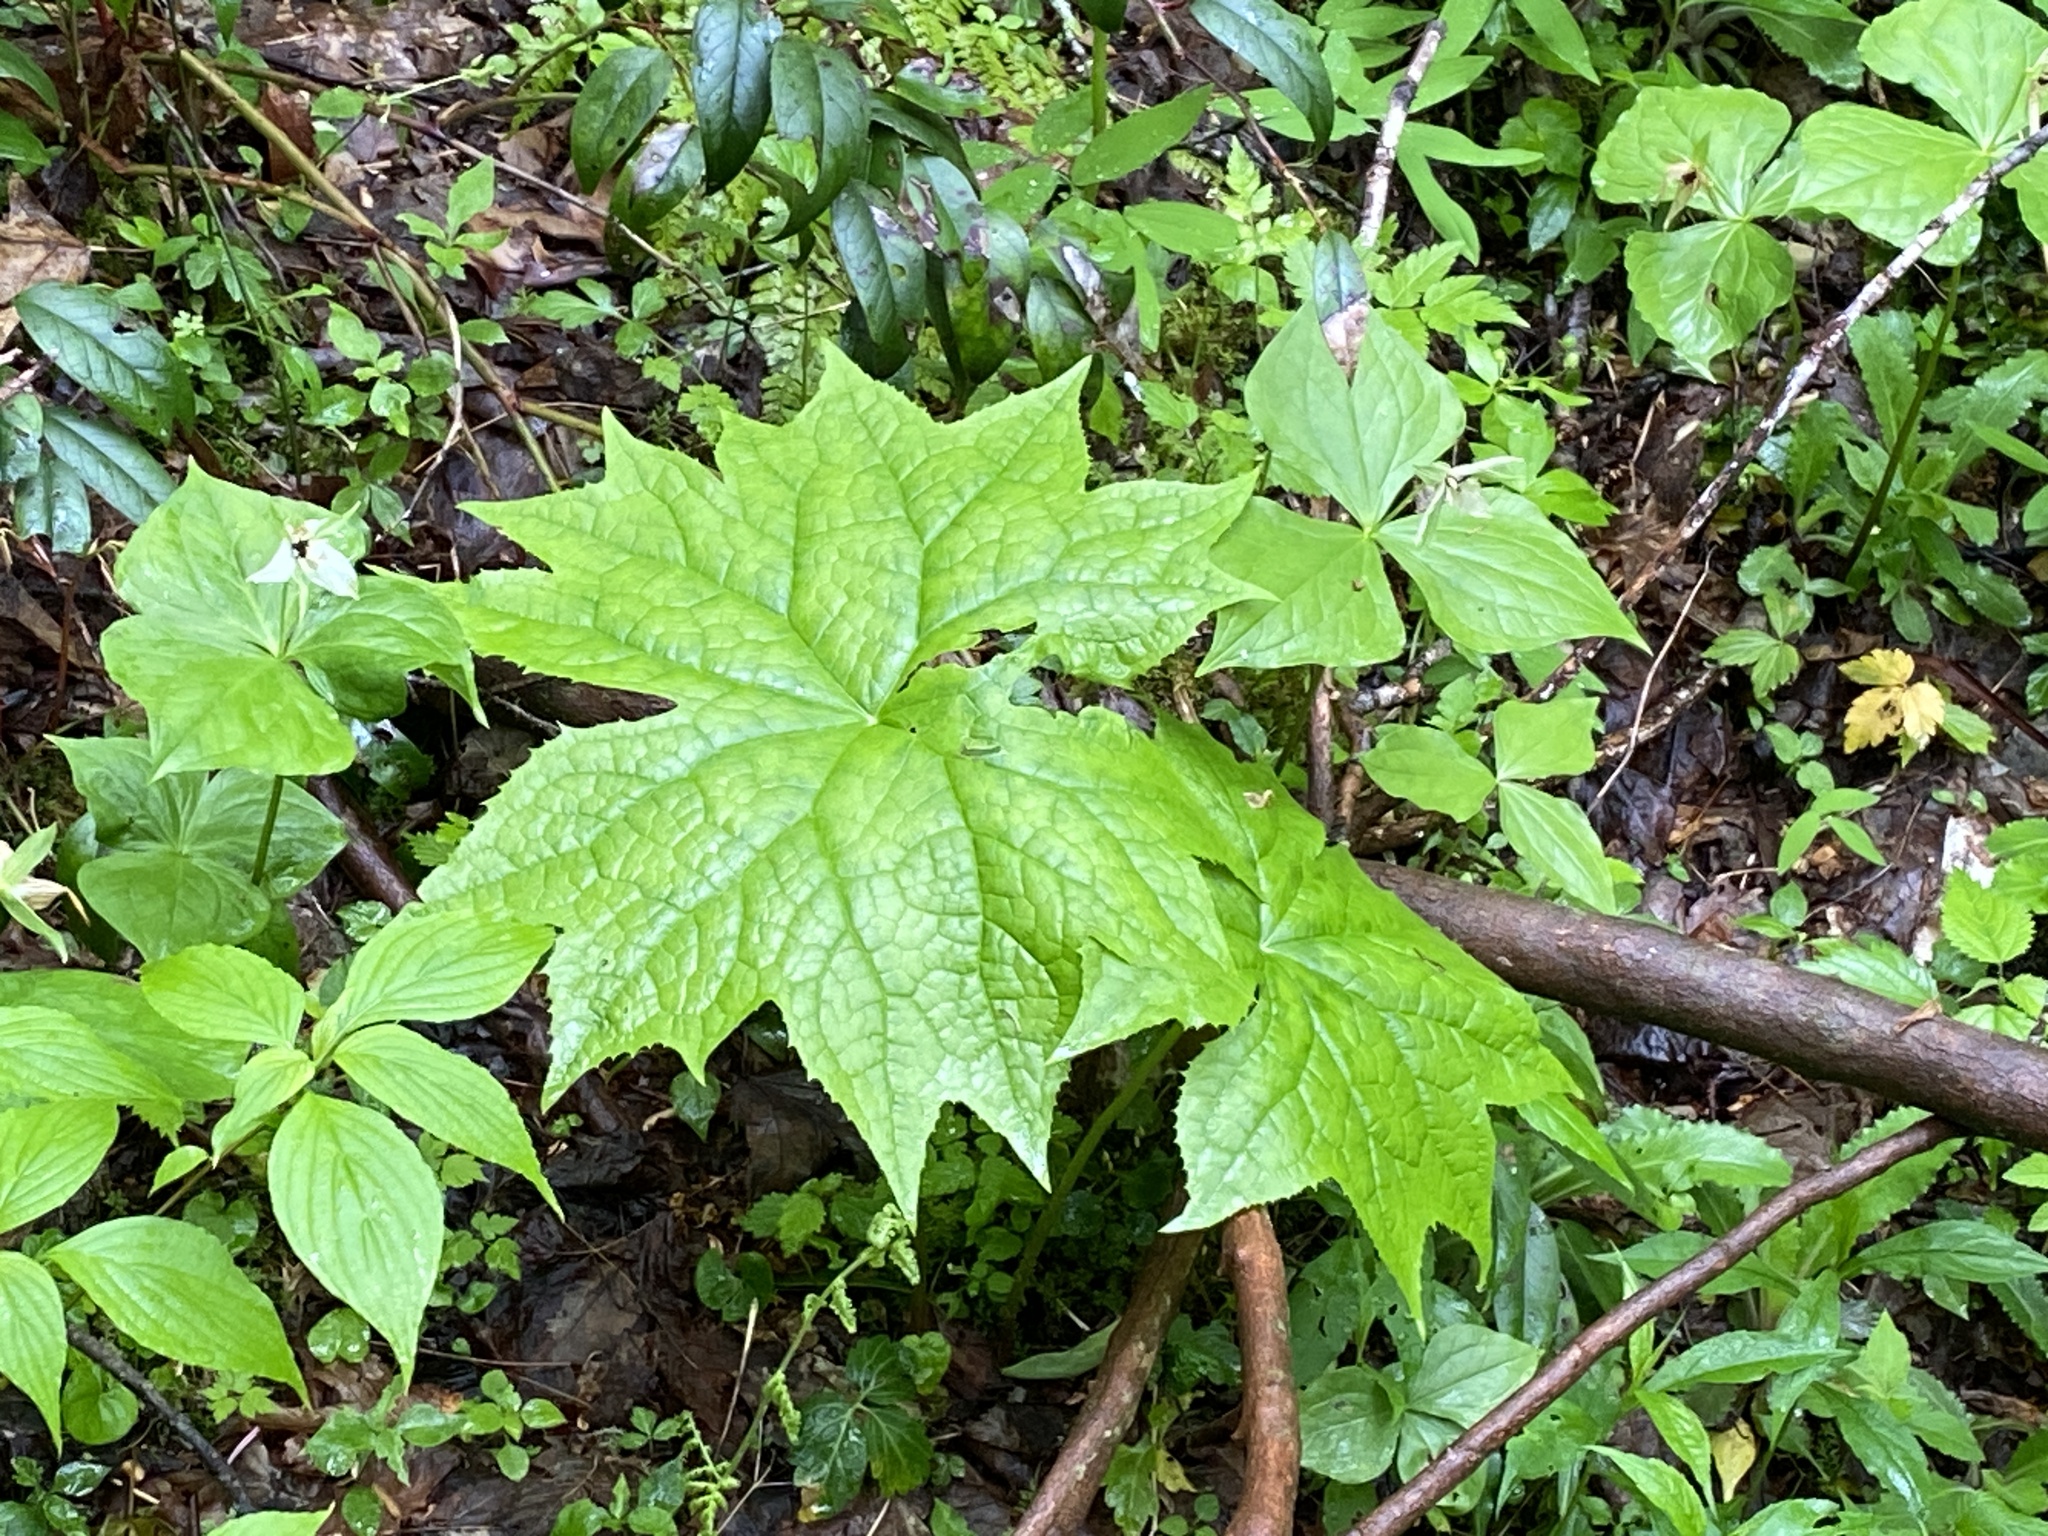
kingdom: Plantae
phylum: Tracheophyta
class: Magnoliopsida
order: Ranunculales
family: Berberidaceae
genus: Diphylleia
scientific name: Diphylleia cymosa
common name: Umbrella-leaf
